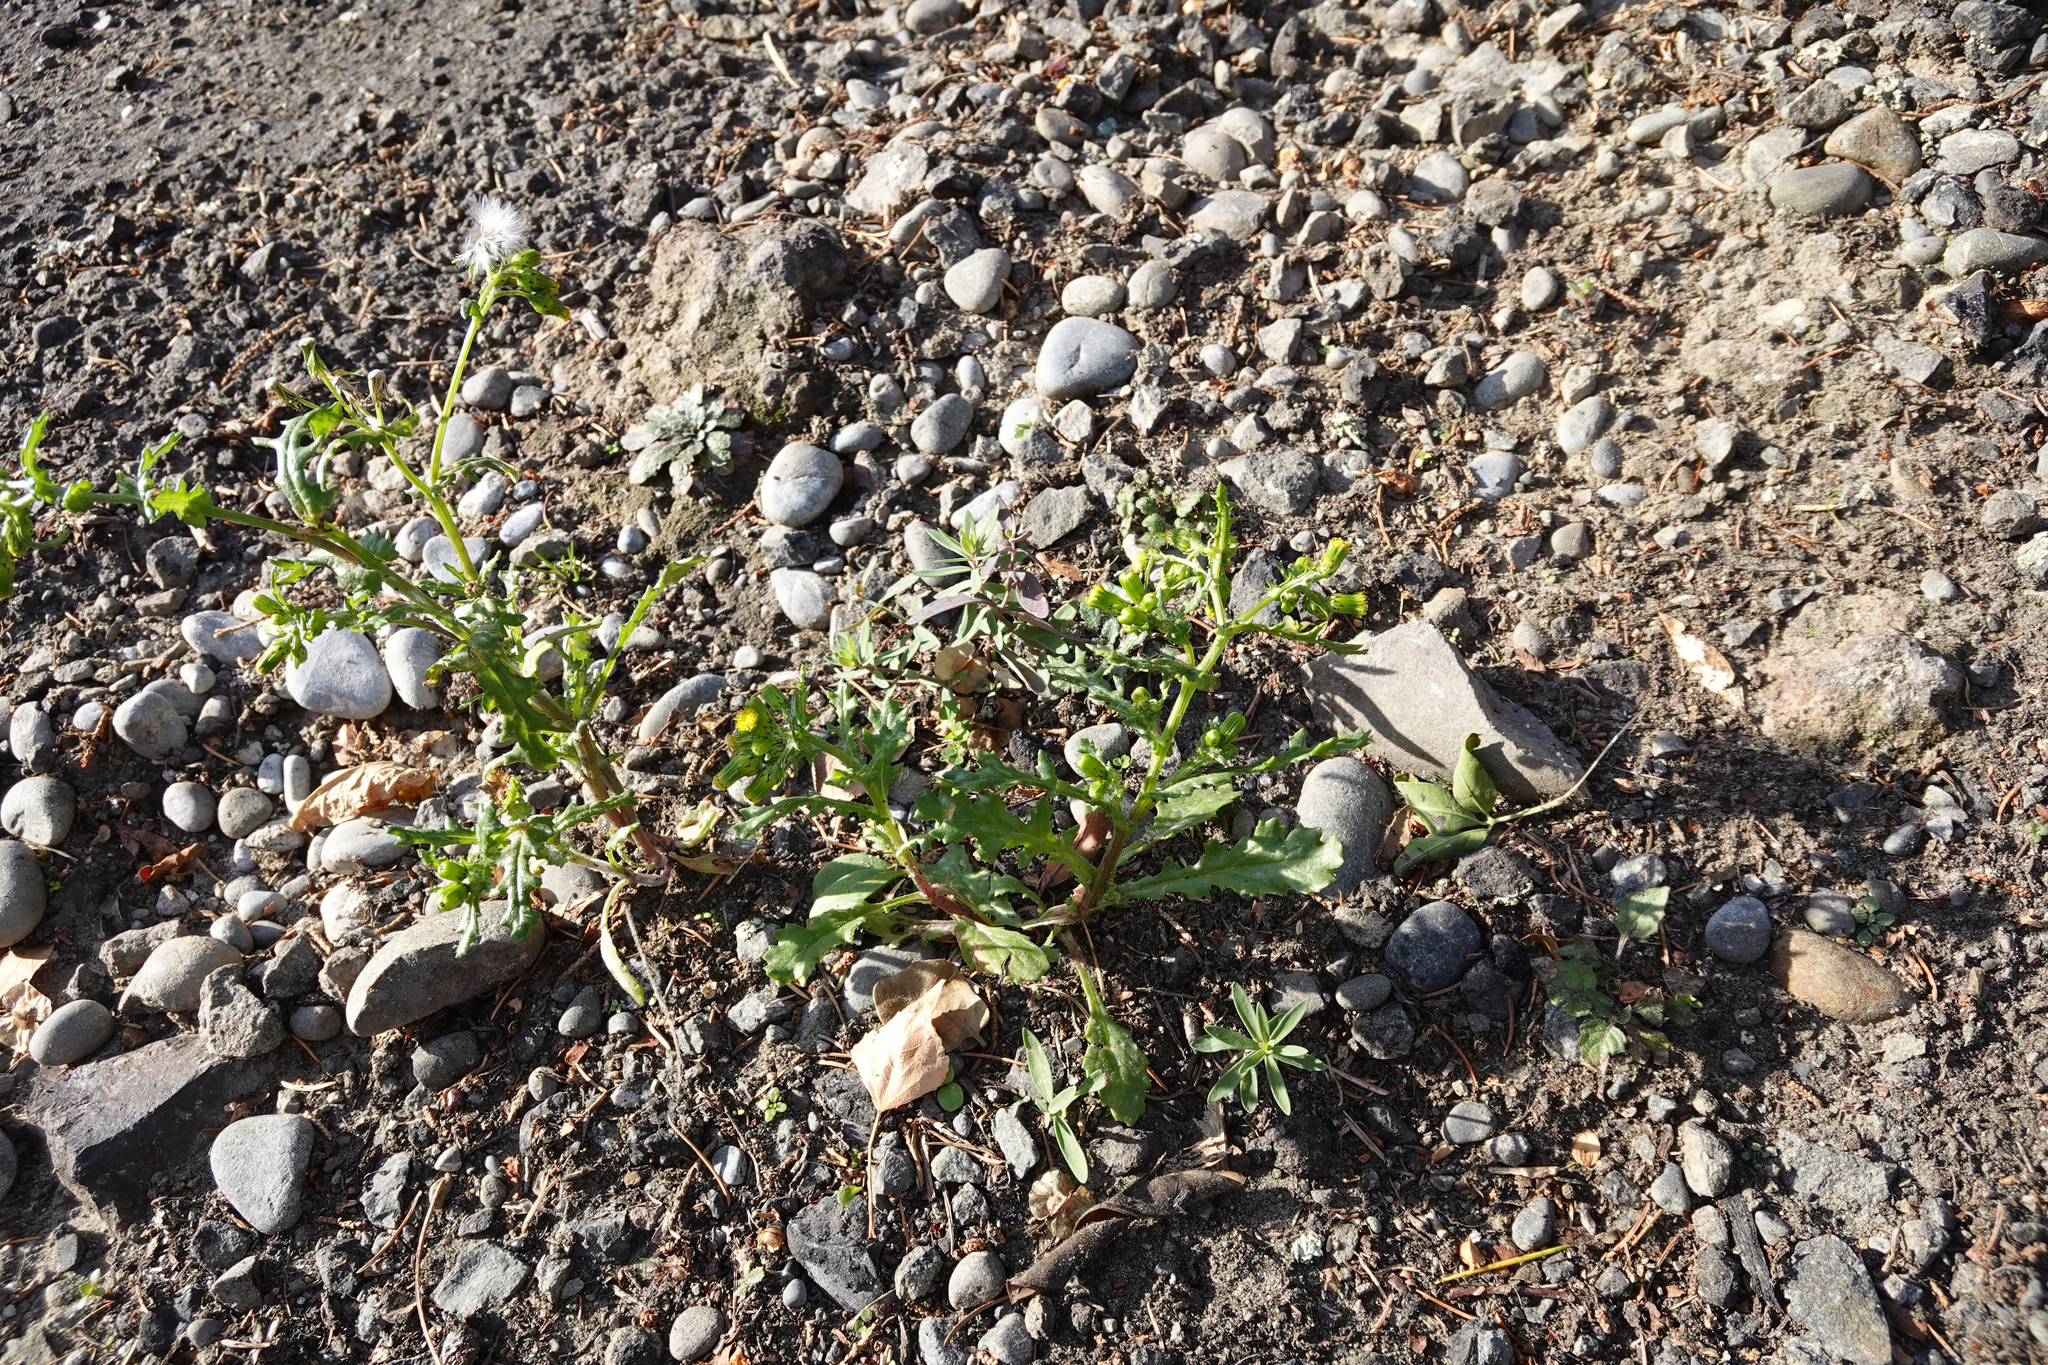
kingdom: Plantae
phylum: Tracheophyta
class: Magnoliopsida
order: Asterales
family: Asteraceae
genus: Senecio
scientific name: Senecio vulgaris
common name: Old-man-in-the-spring
